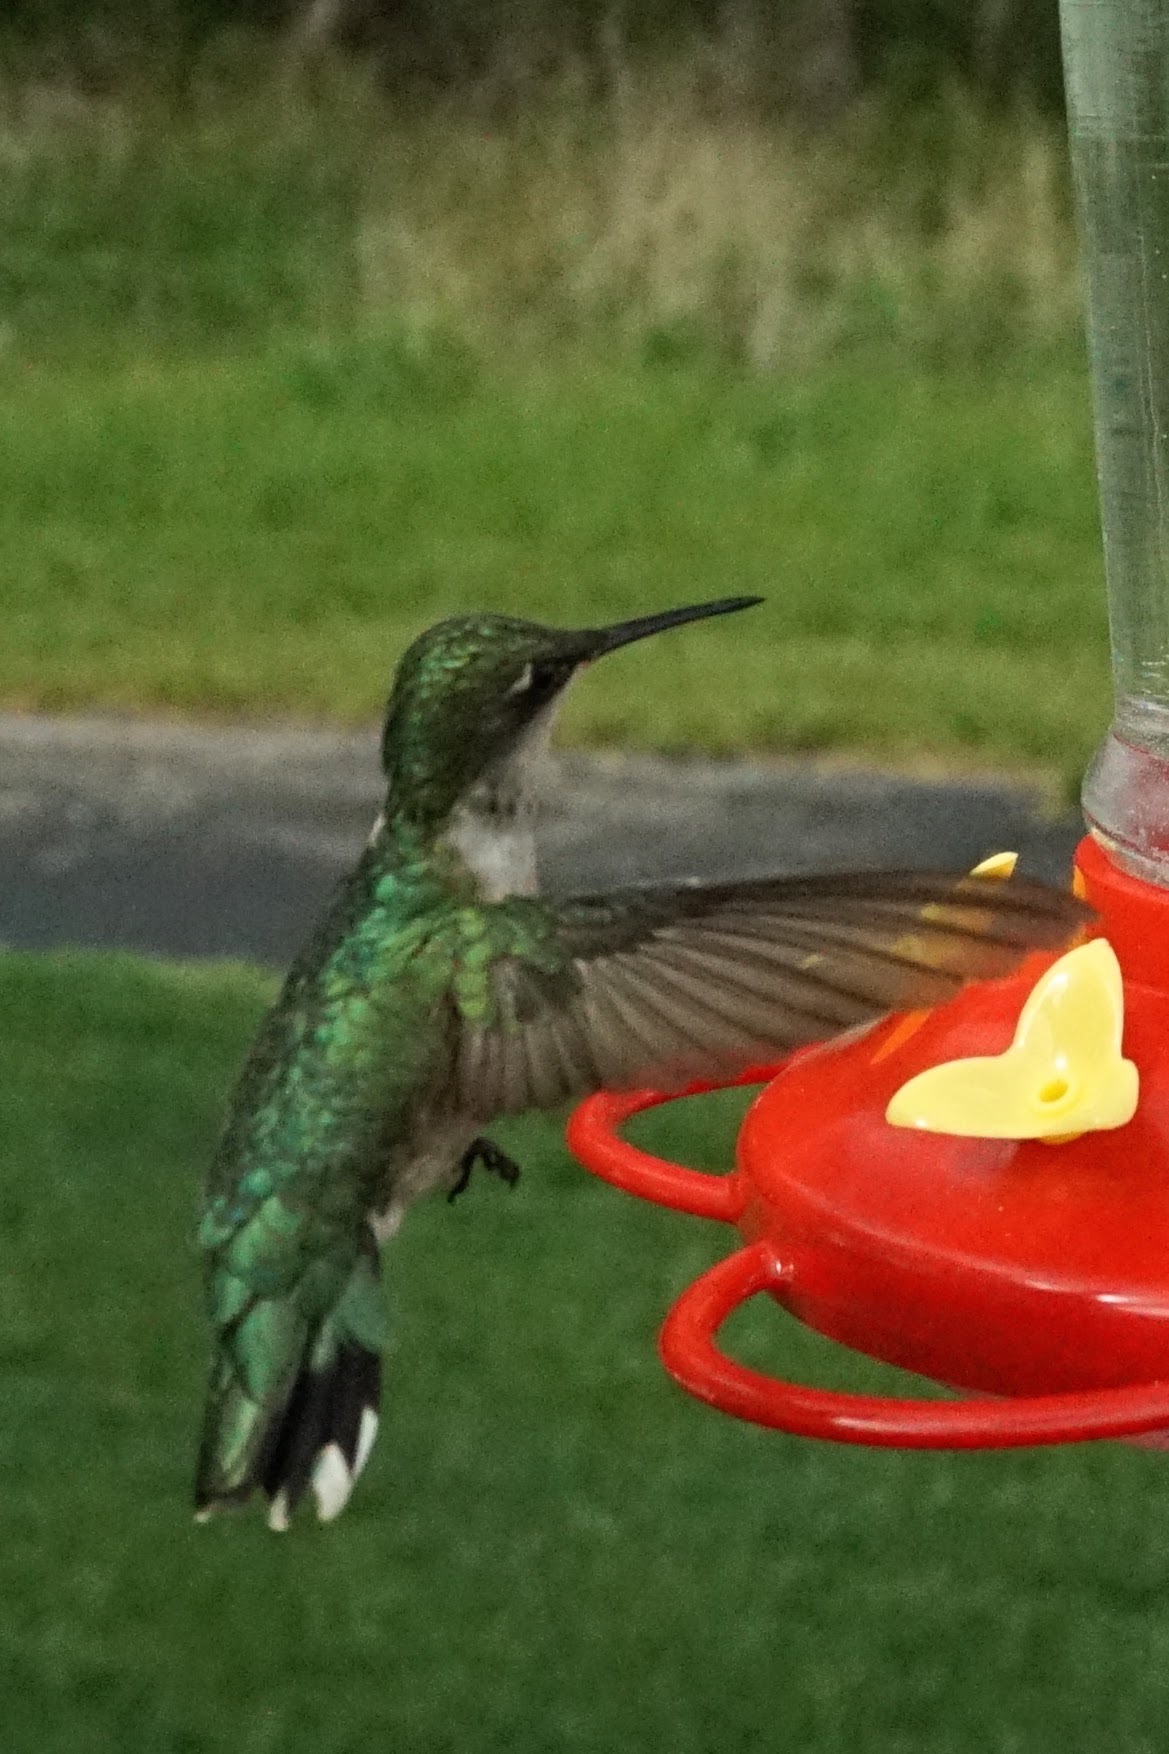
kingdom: Animalia
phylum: Chordata
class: Aves
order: Apodiformes
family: Trochilidae
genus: Archilochus
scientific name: Archilochus colubris
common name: Ruby-throated hummingbird
